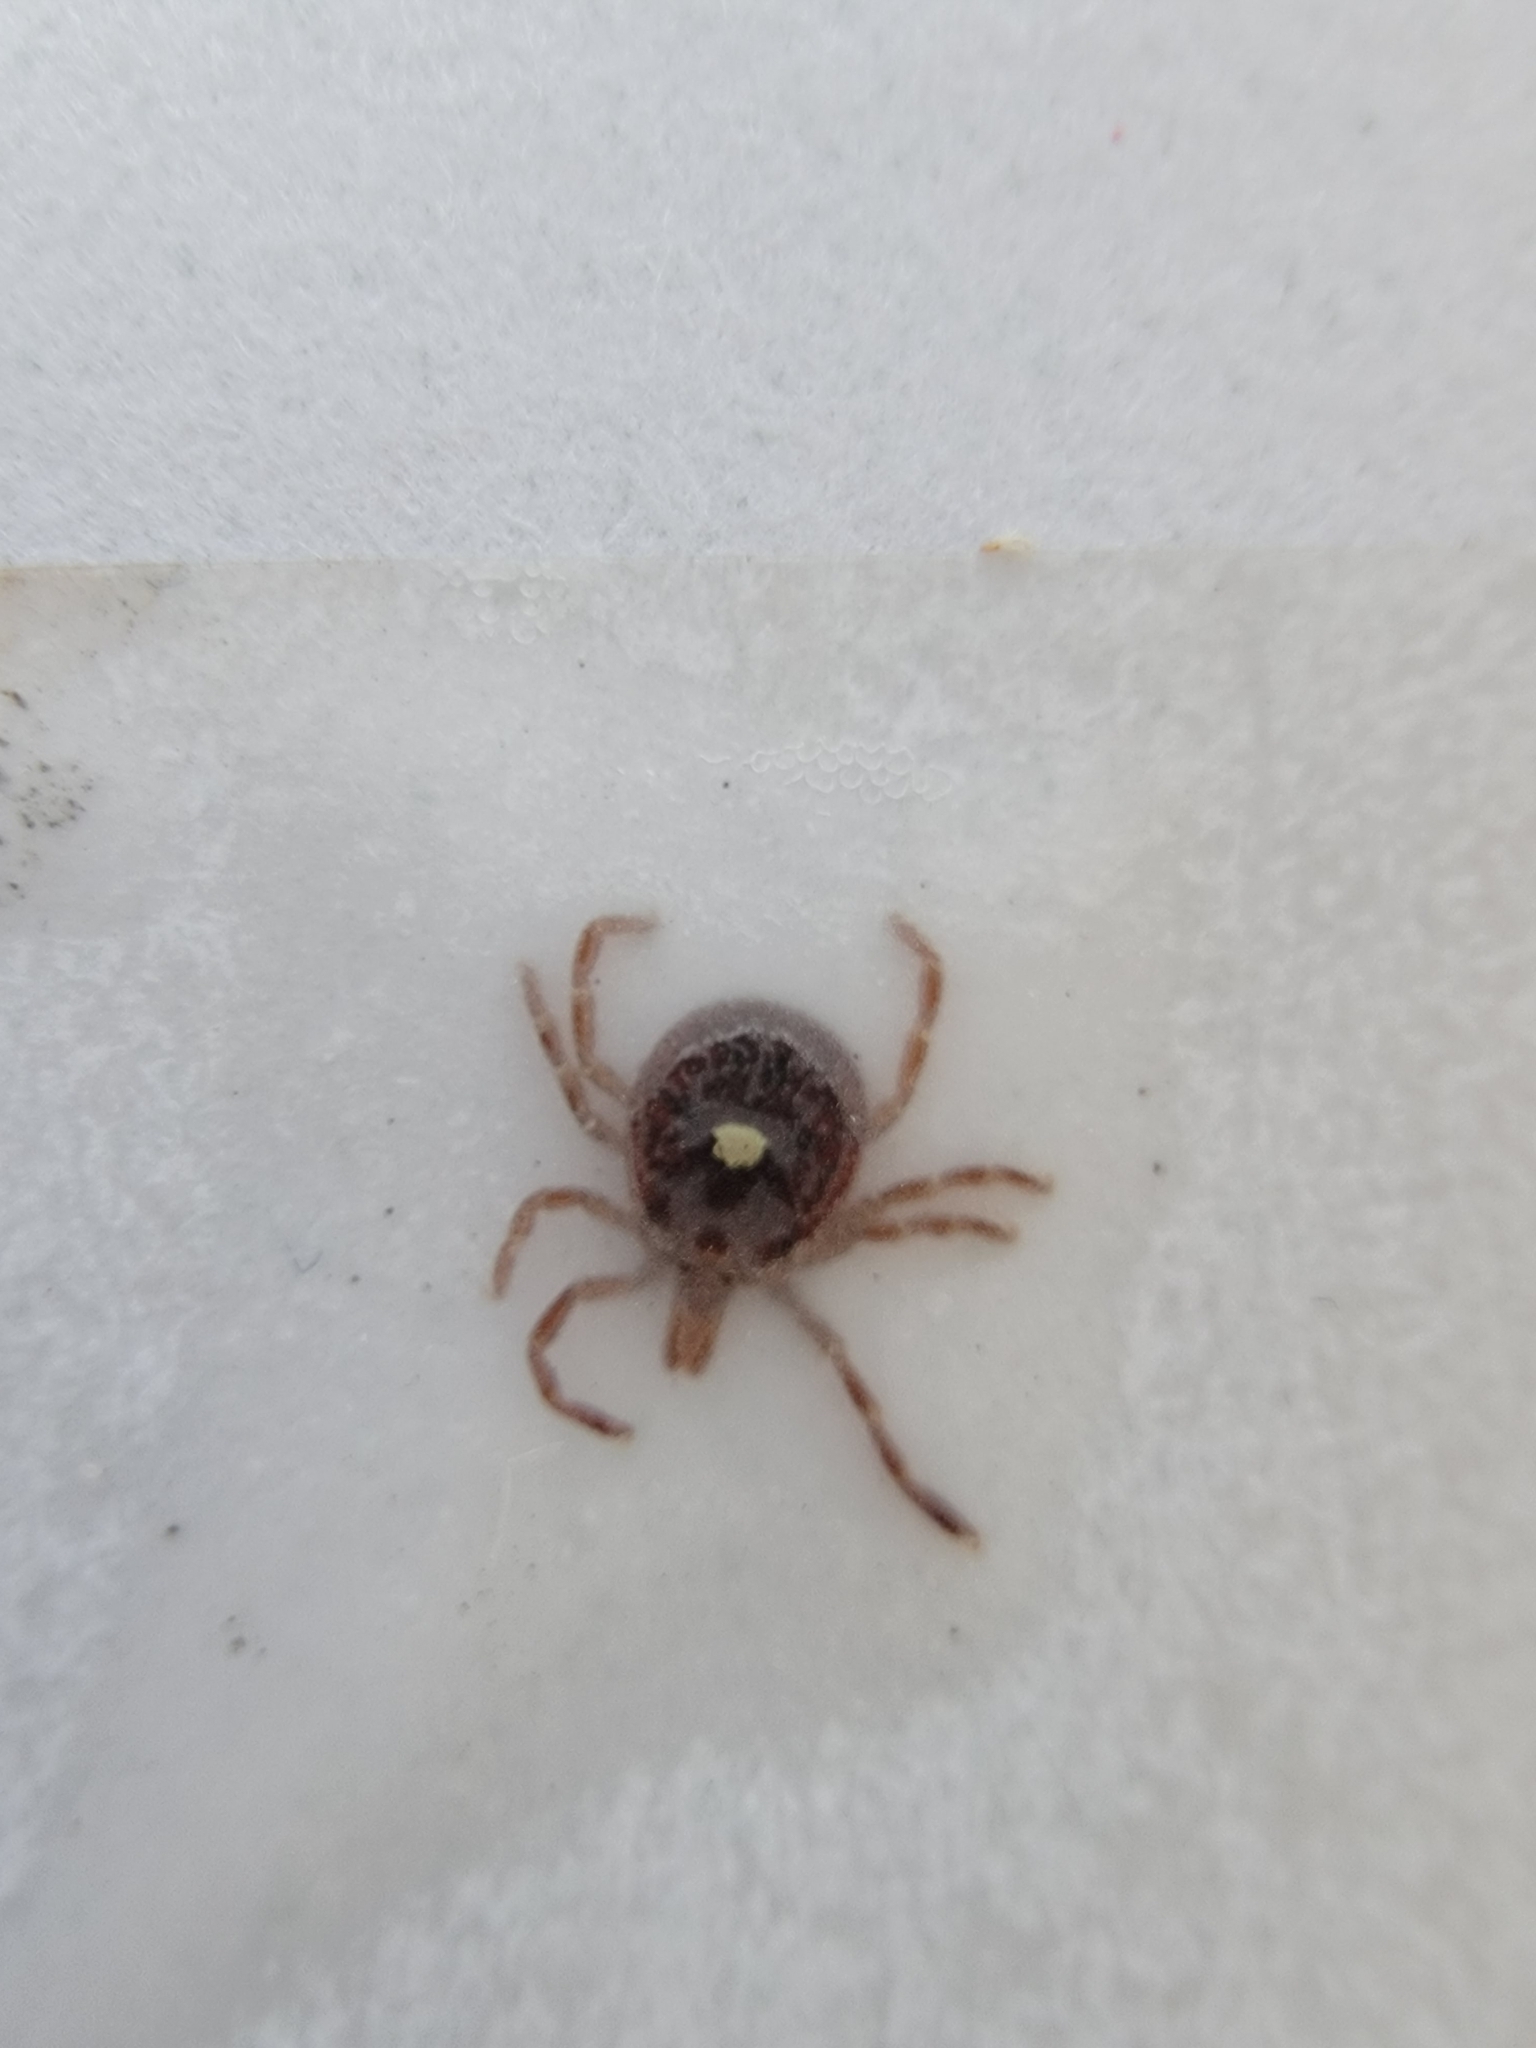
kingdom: Animalia
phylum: Arthropoda
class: Arachnida
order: Ixodida
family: Ixodidae
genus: Amblyomma
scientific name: Amblyomma americanum
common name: Lone star tick
